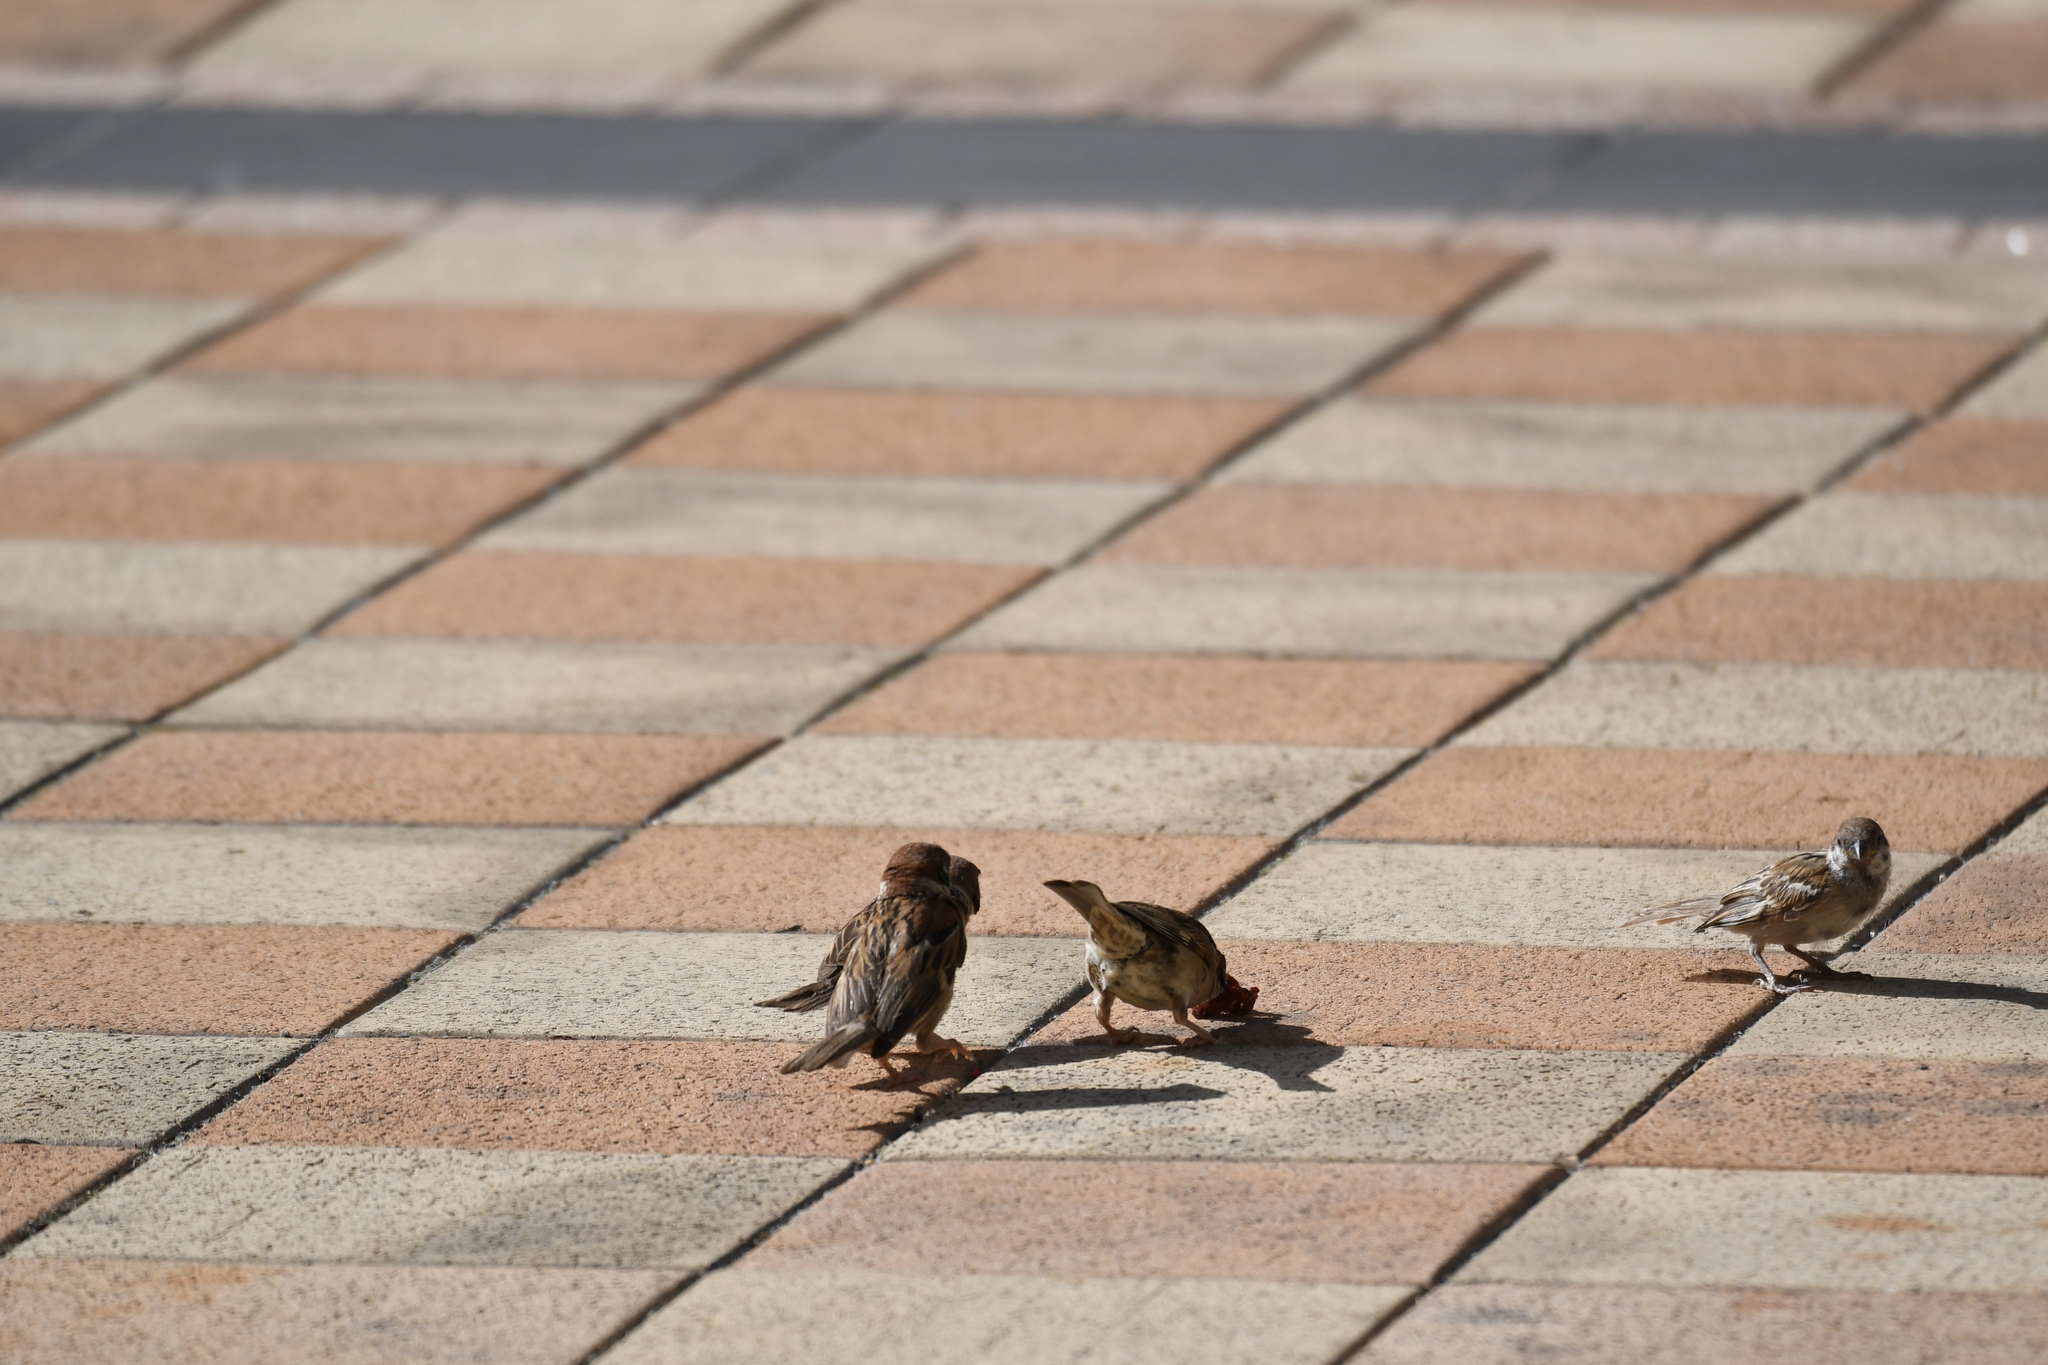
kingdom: Animalia
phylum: Chordata
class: Aves
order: Passeriformes
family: Passeridae
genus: Passer
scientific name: Passer montanus
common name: Eurasian tree sparrow
